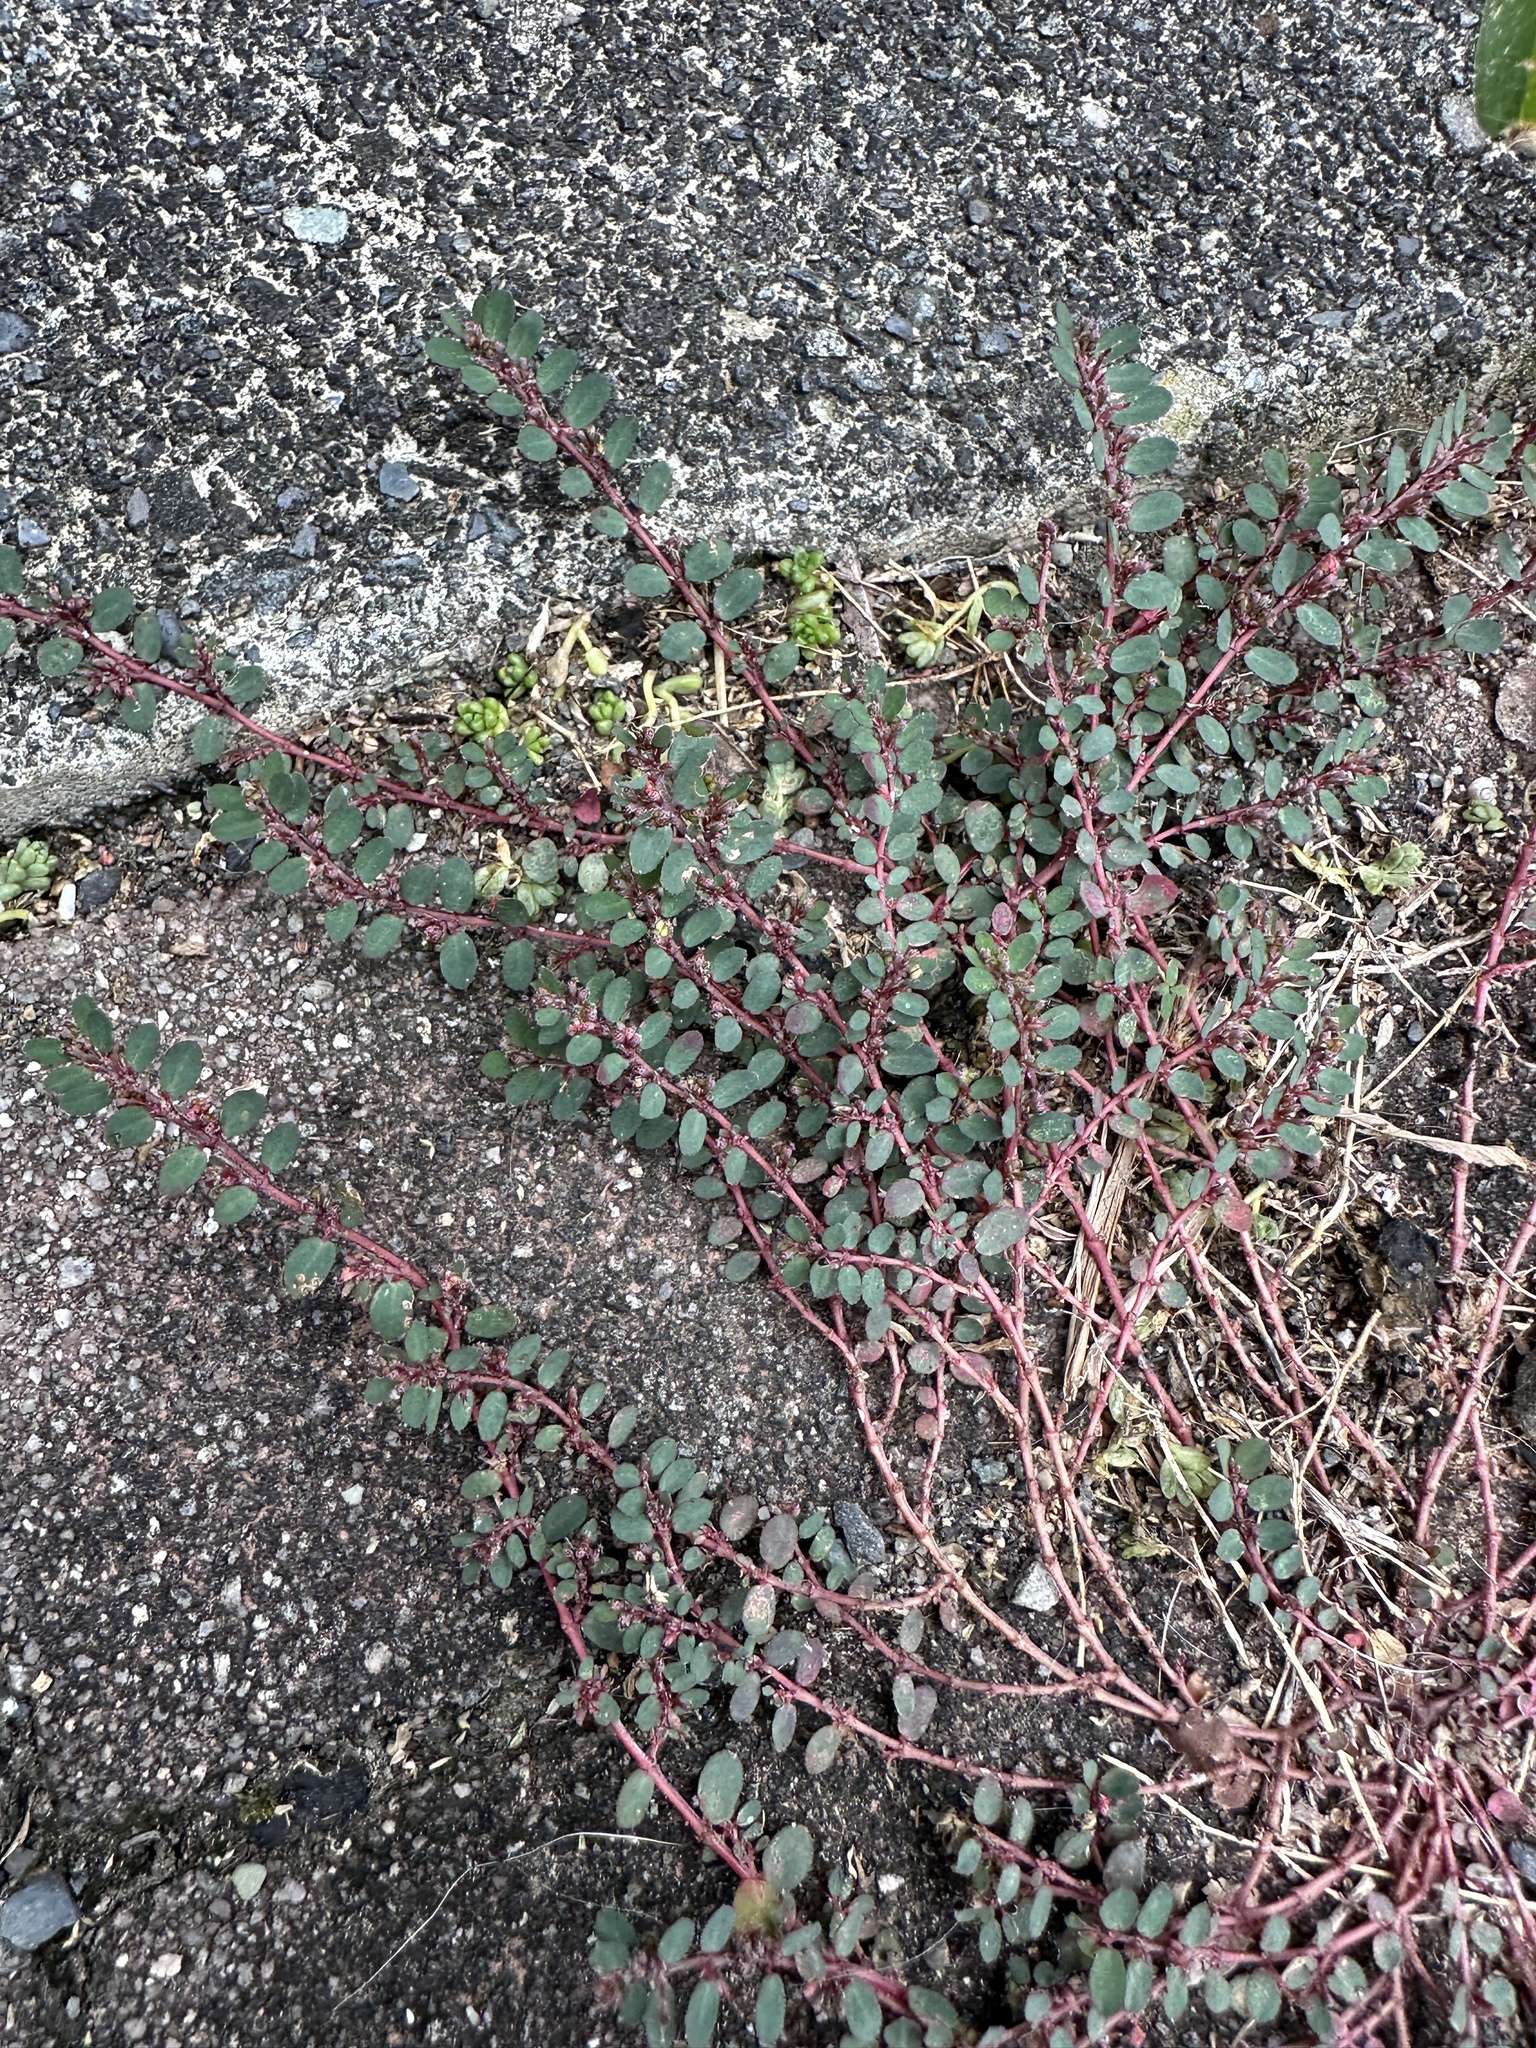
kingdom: Plantae
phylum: Tracheophyta
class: Magnoliopsida
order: Malpighiales
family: Euphorbiaceae
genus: Euphorbia
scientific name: Euphorbia prostrata
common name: Prostrate sandmat
